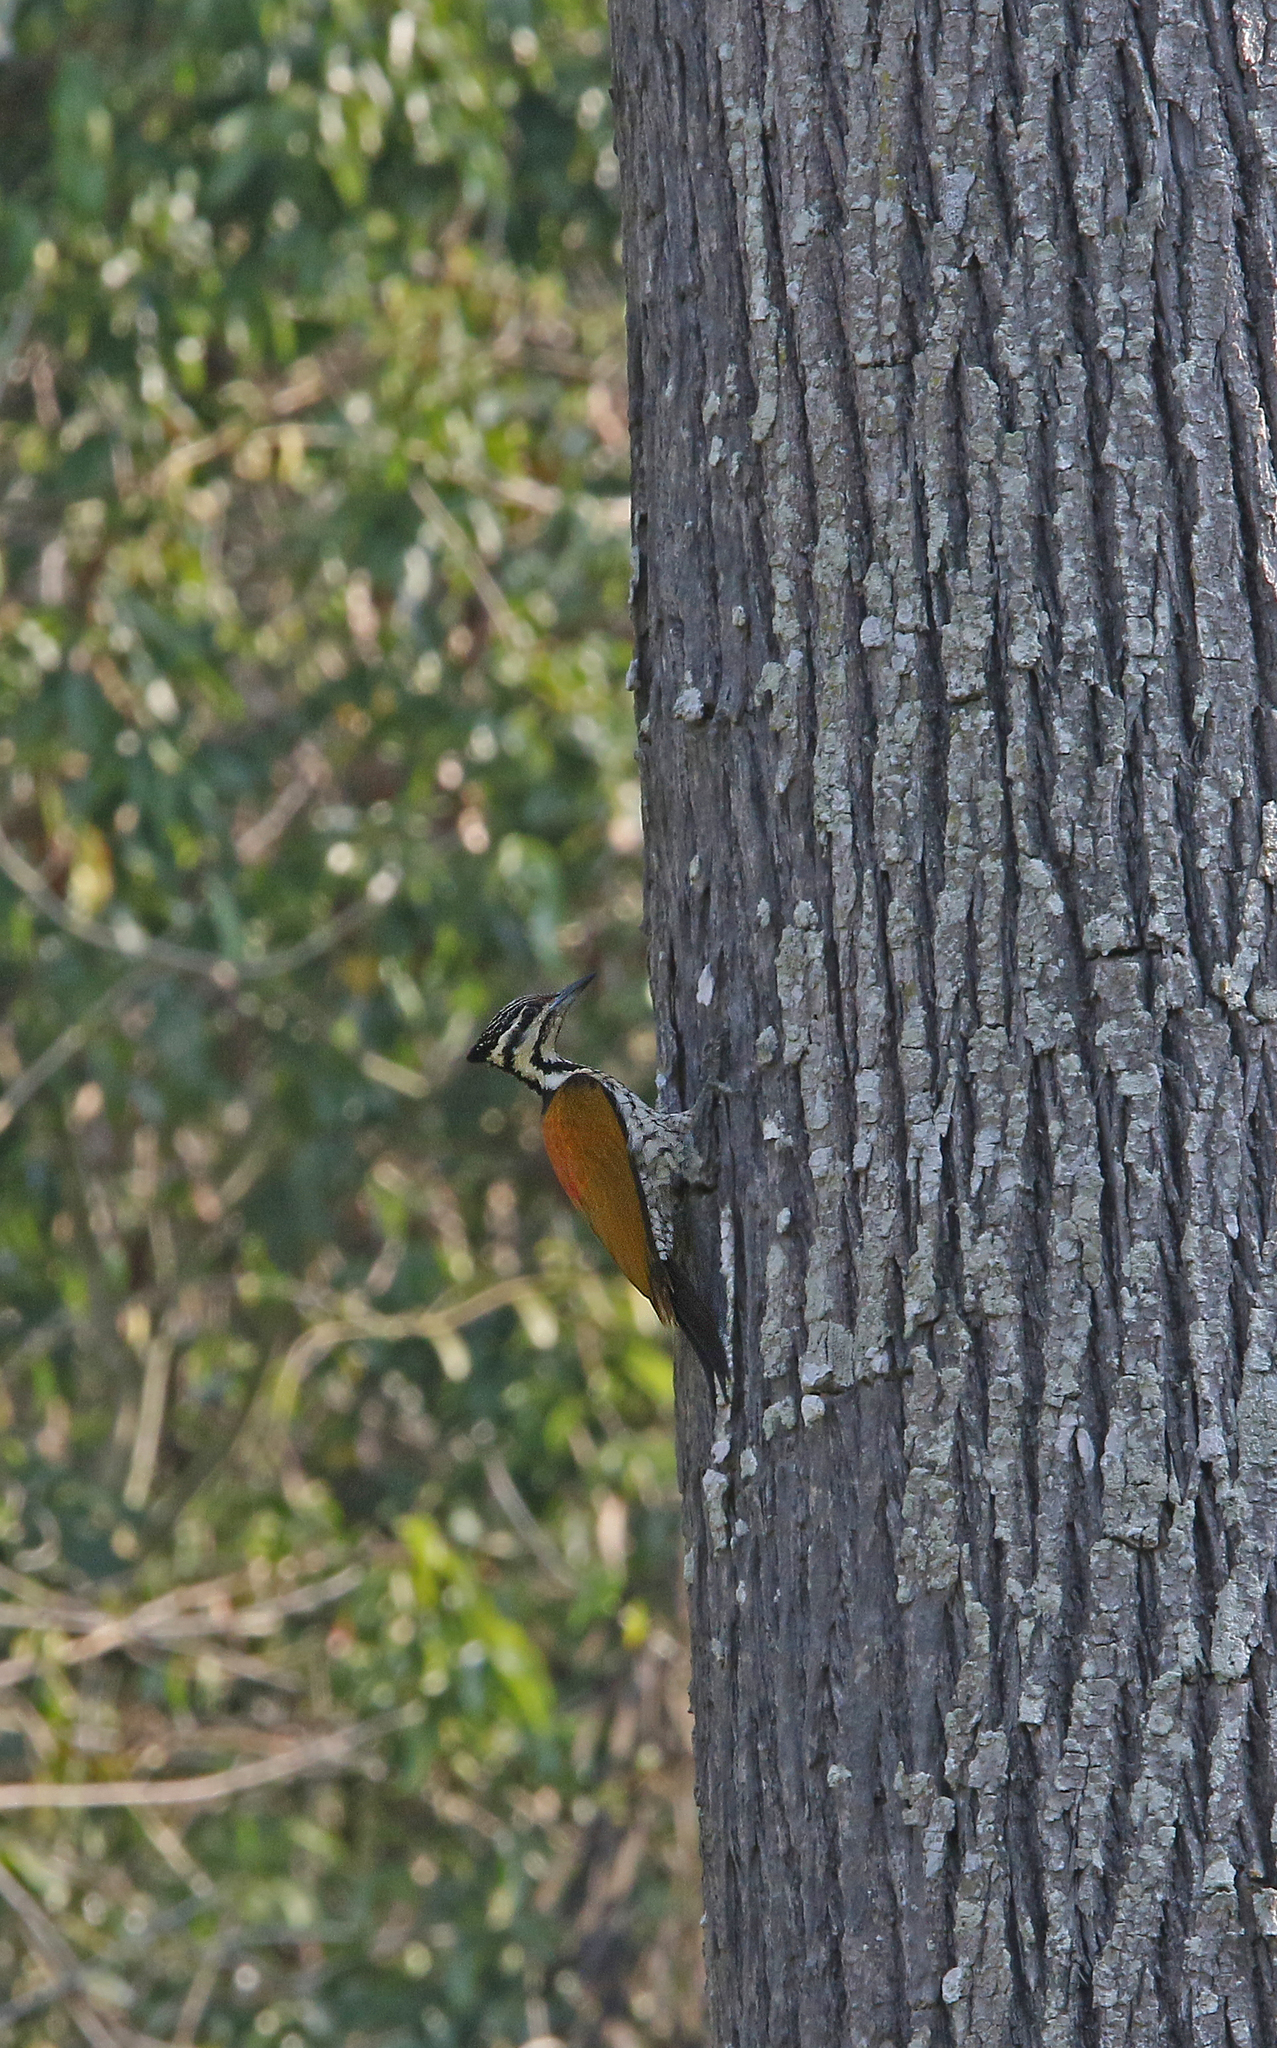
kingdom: Animalia
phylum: Chordata
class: Aves
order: Piciformes
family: Picidae
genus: Dinopium
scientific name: Dinopium javanense
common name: Common flameback
